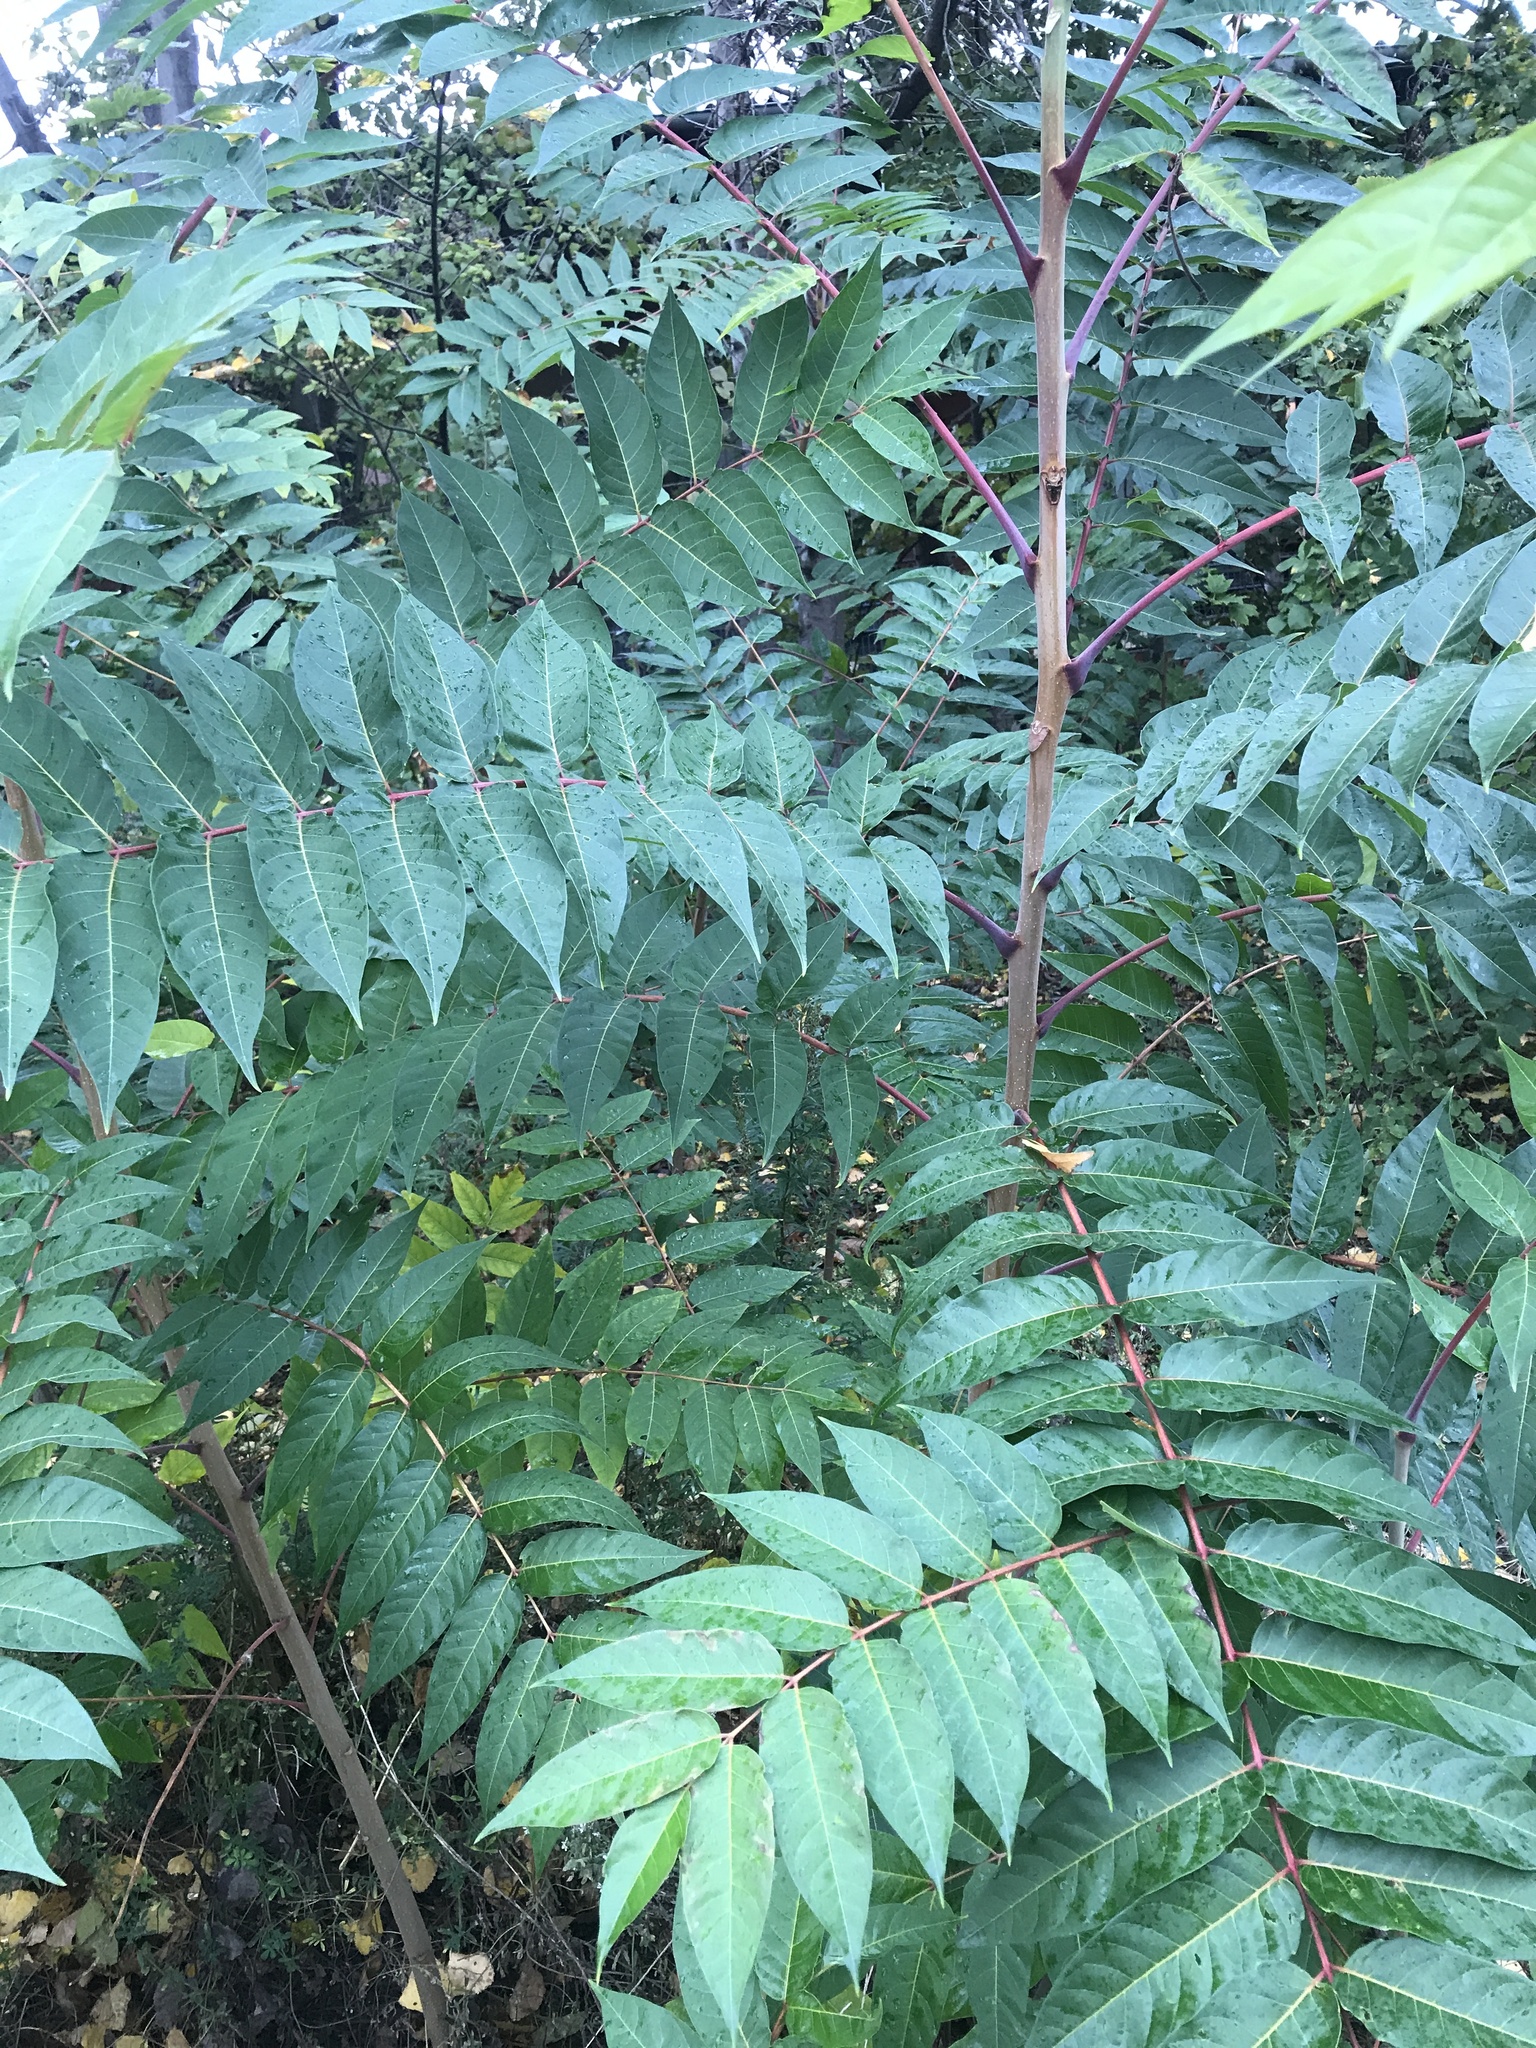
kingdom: Plantae
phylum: Tracheophyta
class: Magnoliopsida
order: Sapindales
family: Simaroubaceae
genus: Ailanthus
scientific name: Ailanthus altissima
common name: Tree-of-heaven
